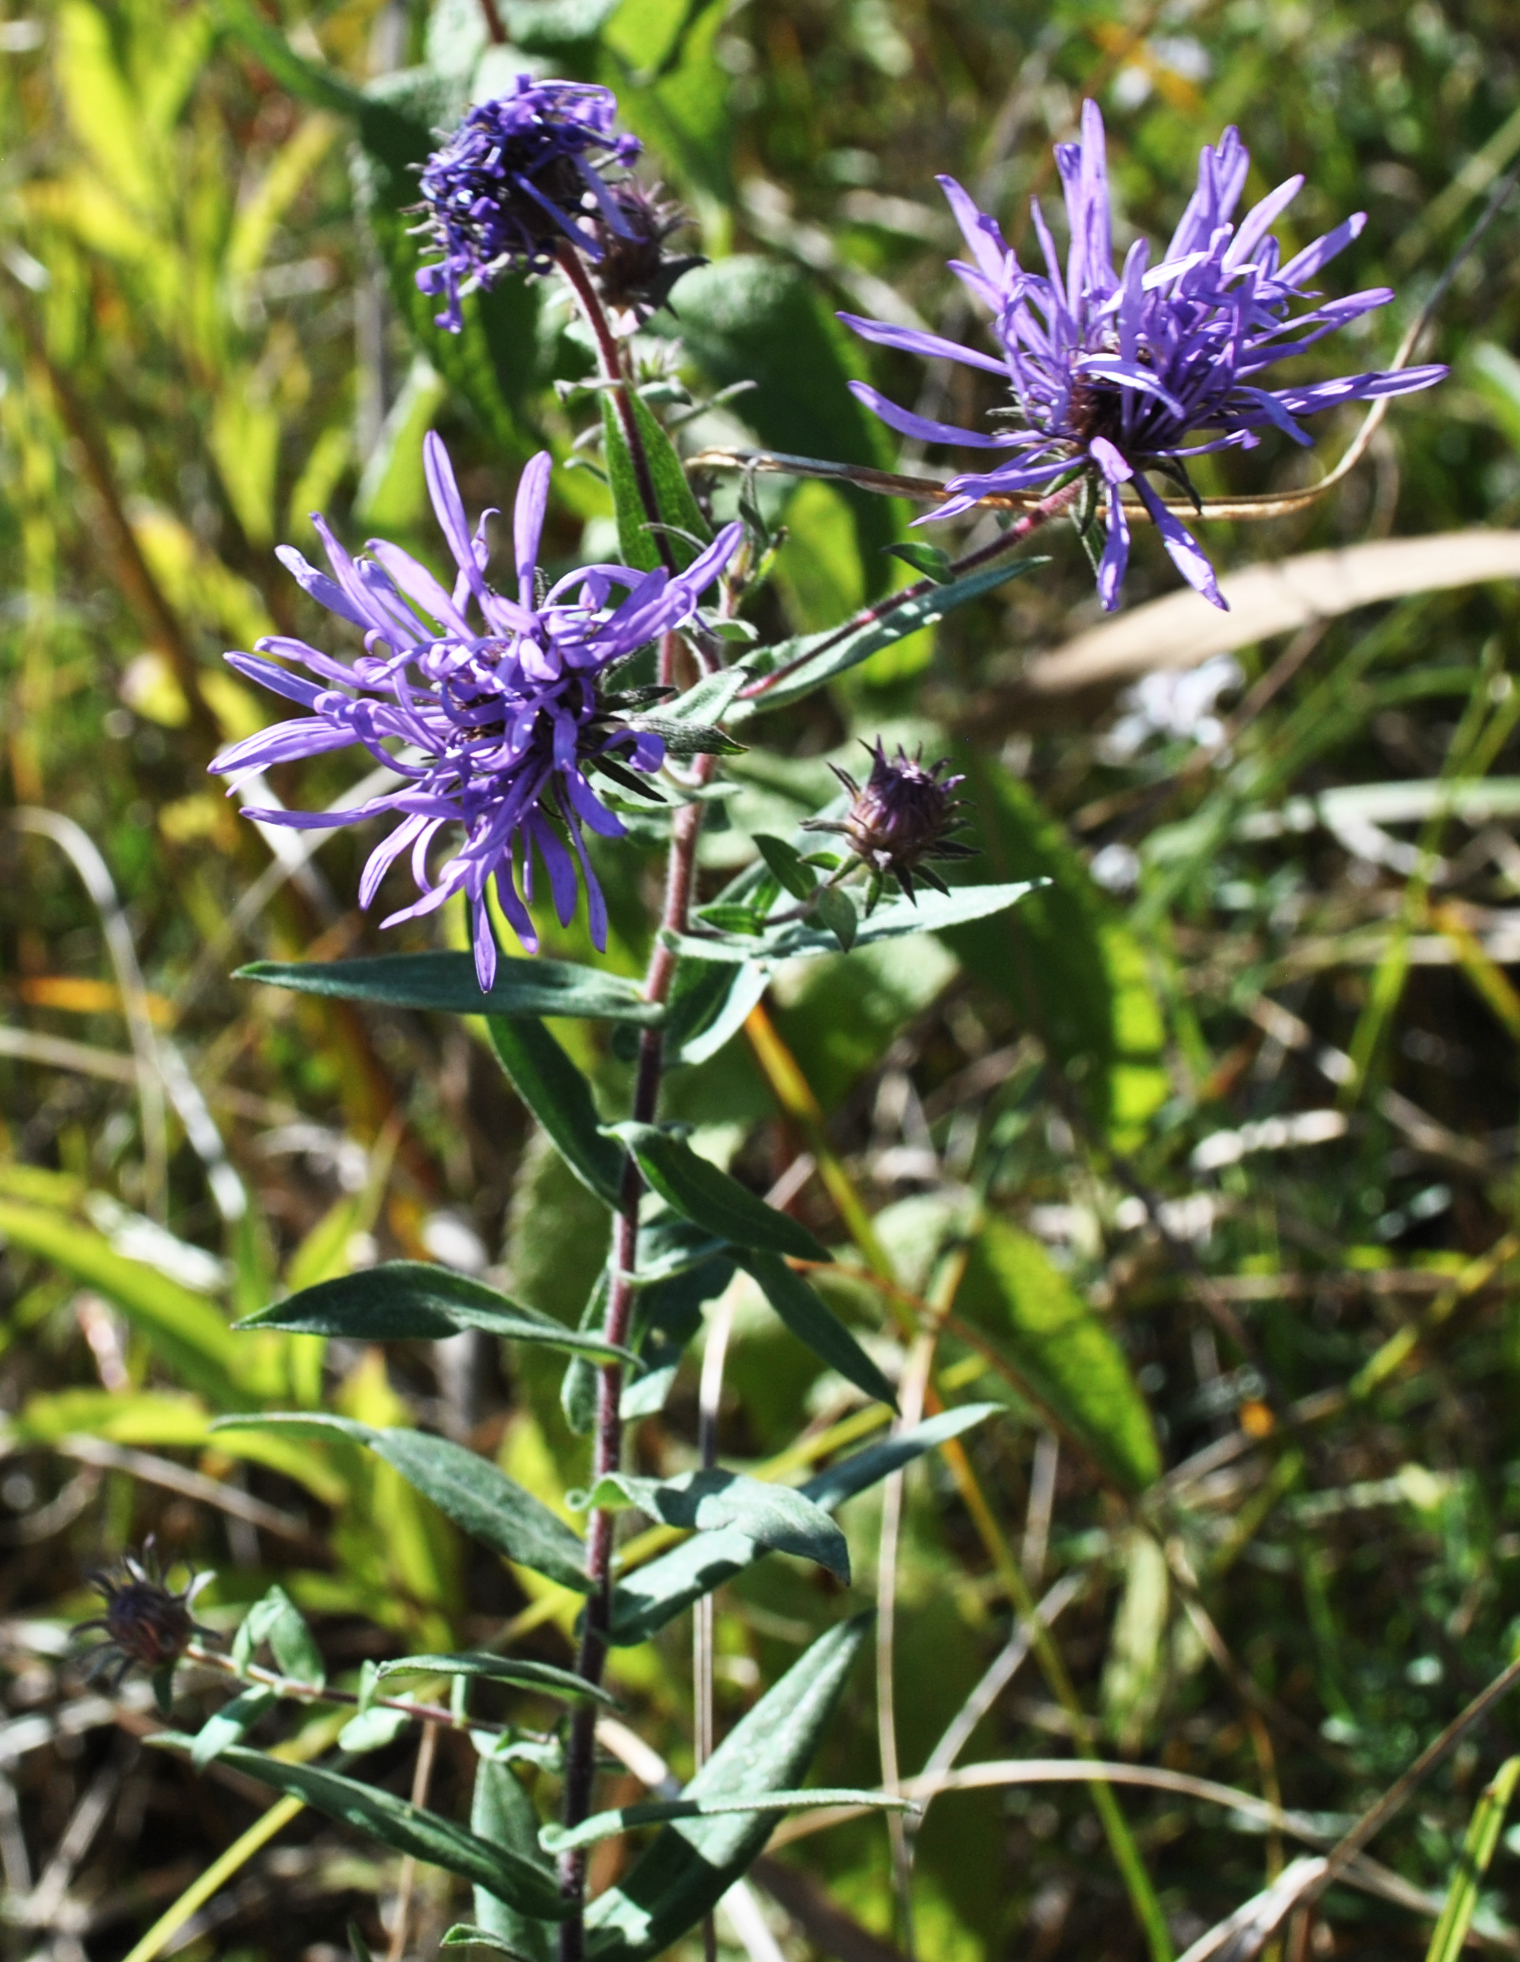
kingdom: Plantae
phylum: Tracheophyta
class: Magnoliopsida
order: Asterales
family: Asteraceae
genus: Symphyotrichum
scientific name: Symphyotrichum novae-angliae
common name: Michaelmas daisy
